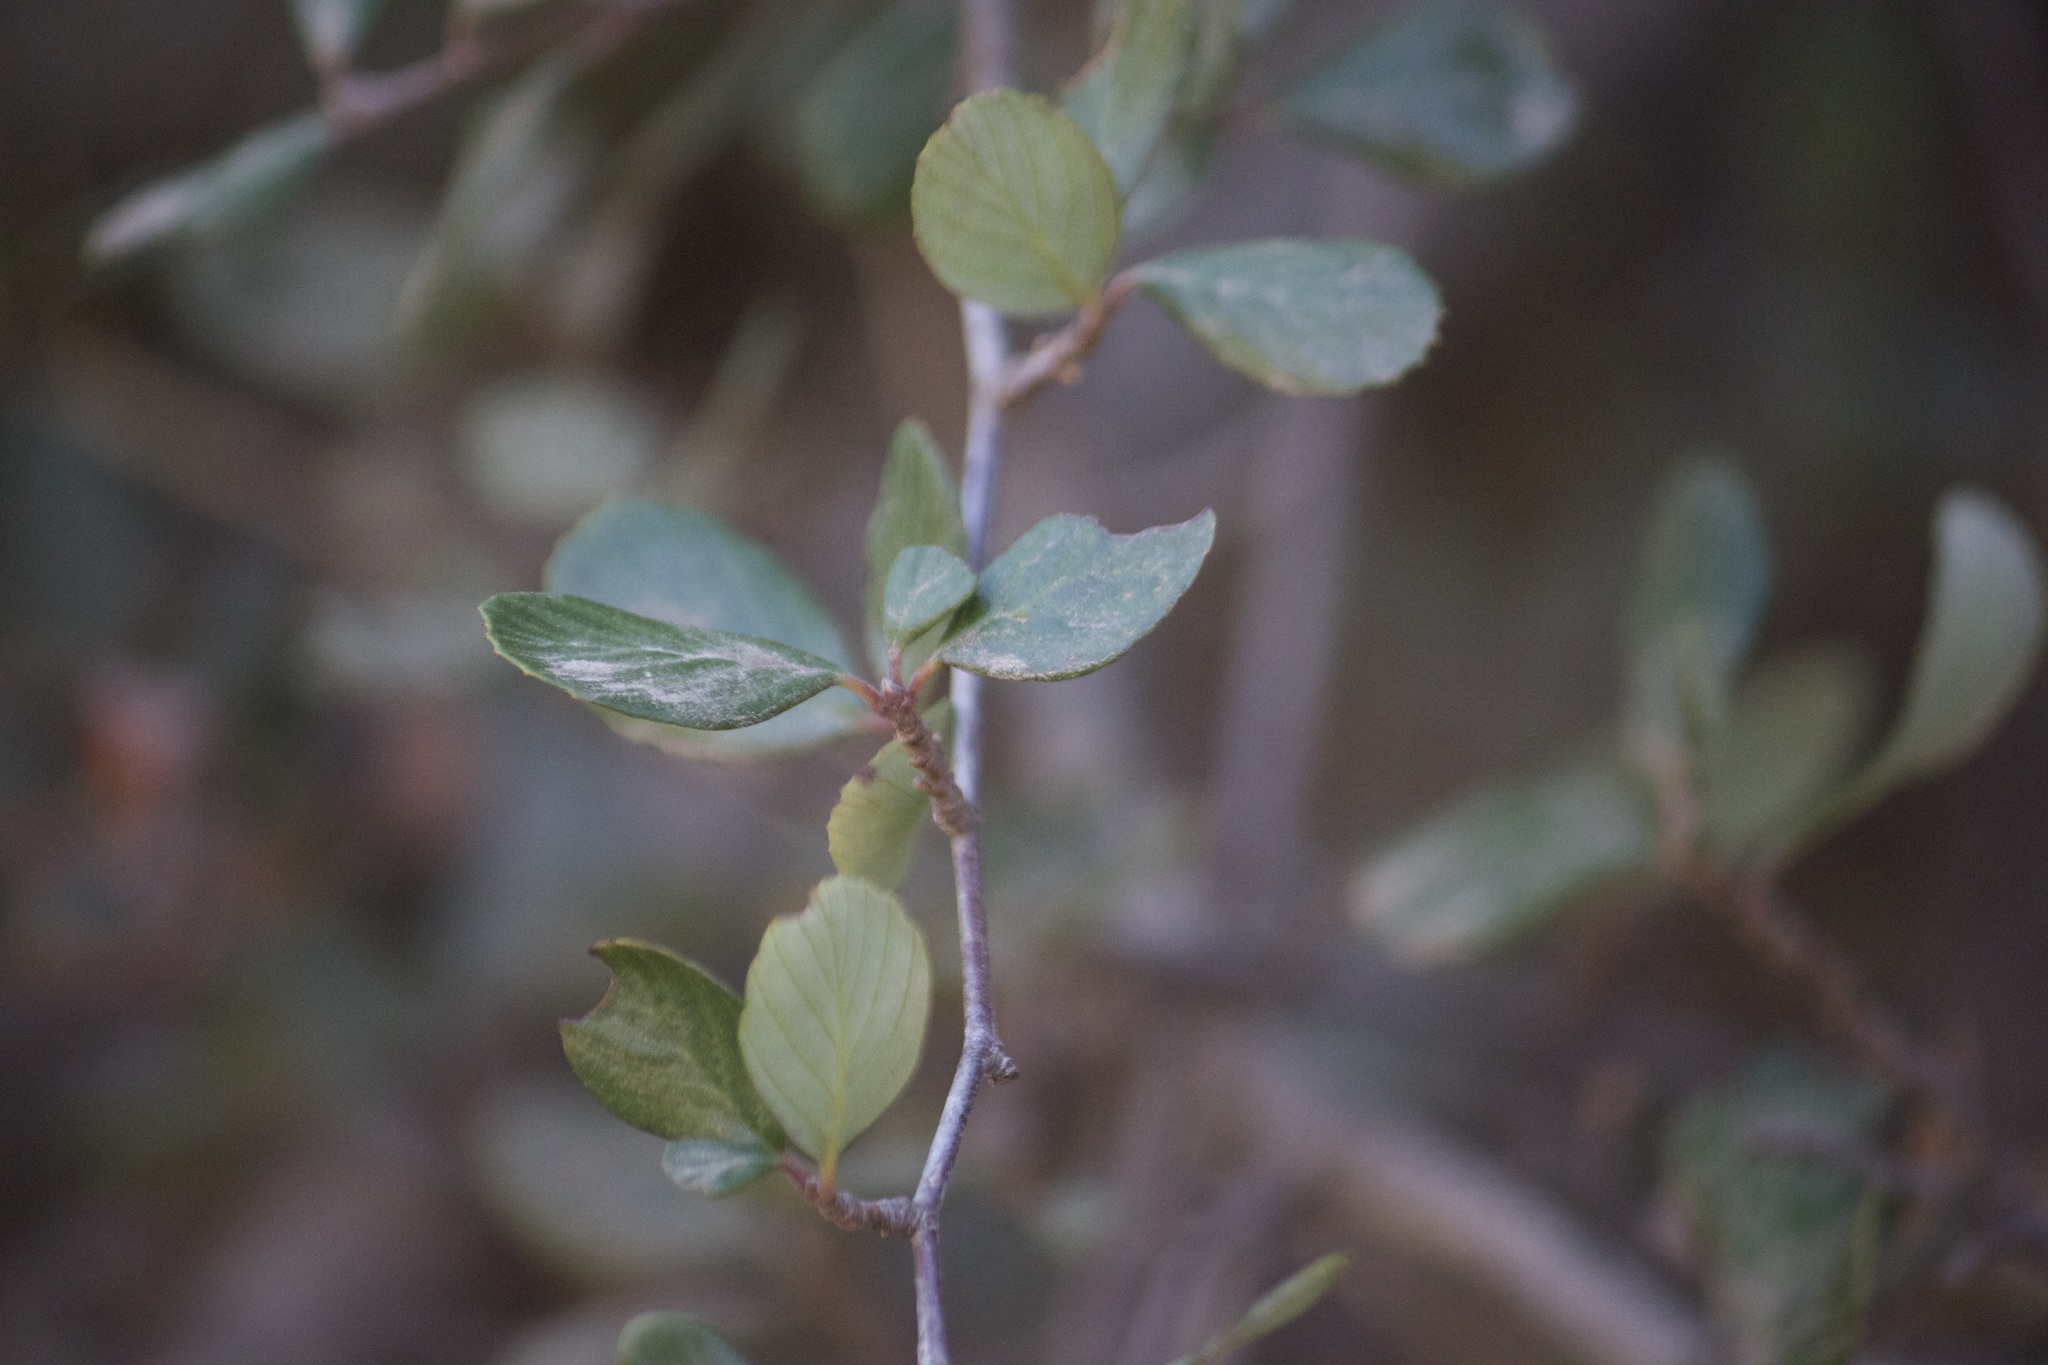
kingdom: Plantae
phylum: Tracheophyta
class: Magnoliopsida
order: Rosales
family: Rosaceae
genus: Cercocarpus
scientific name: Cercocarpus betuloides
